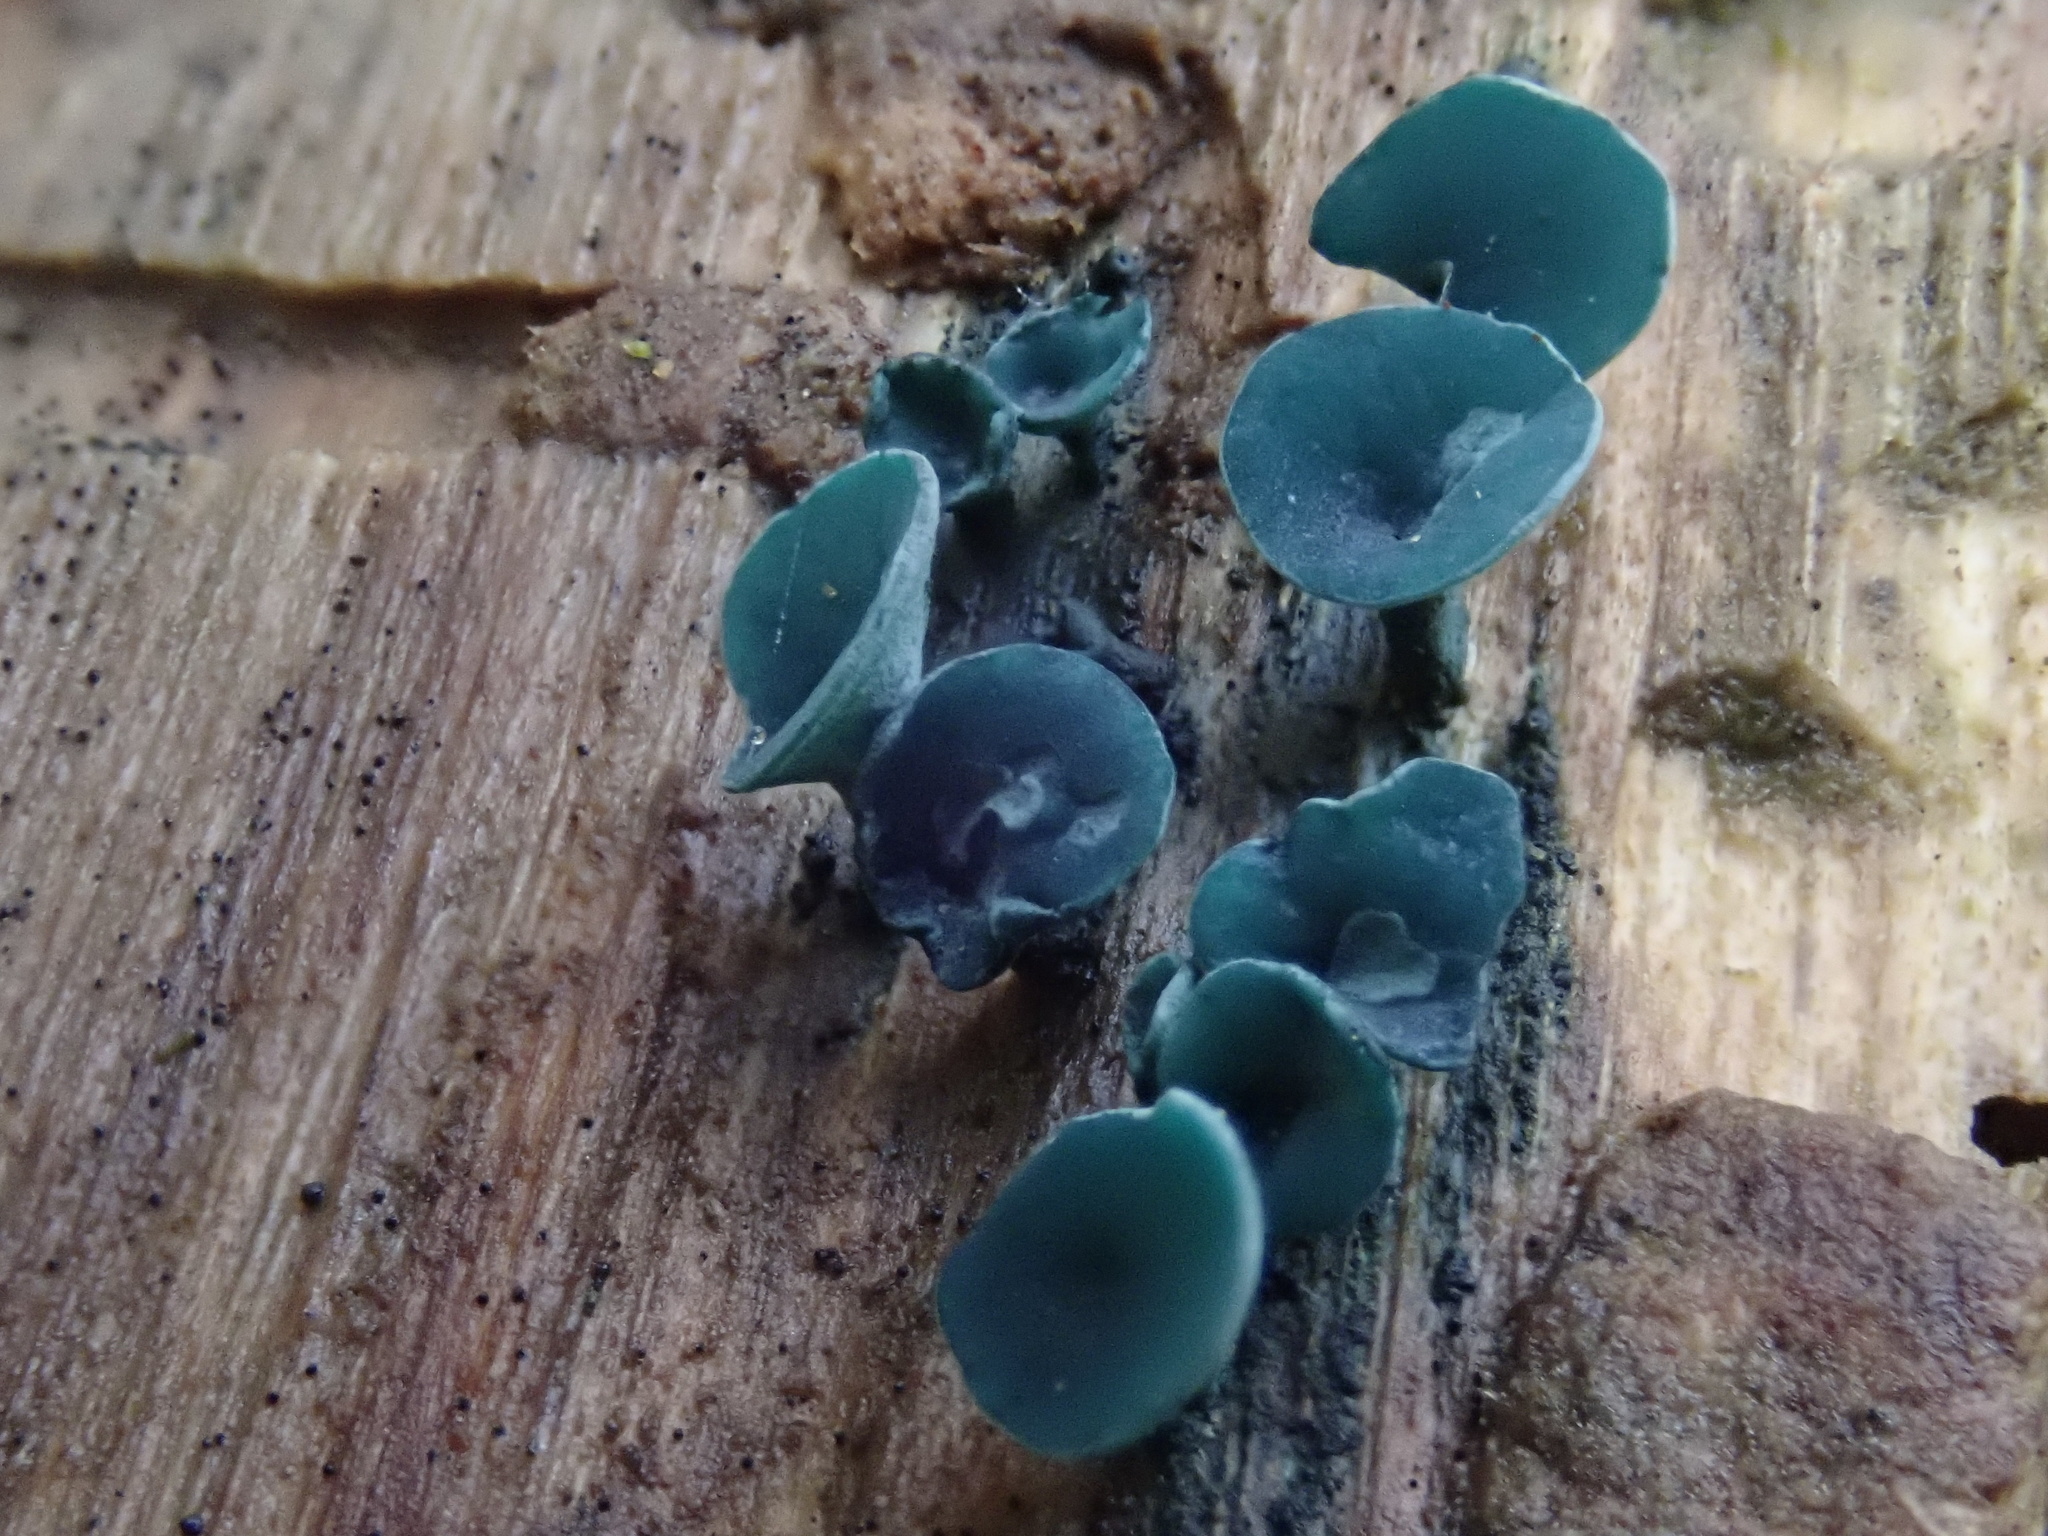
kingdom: Fungi
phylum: Ascomycota
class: Leotiomycetes
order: Helotiales
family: Chlorociboriaceae
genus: Chlorociboria
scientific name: Chlorociboria
